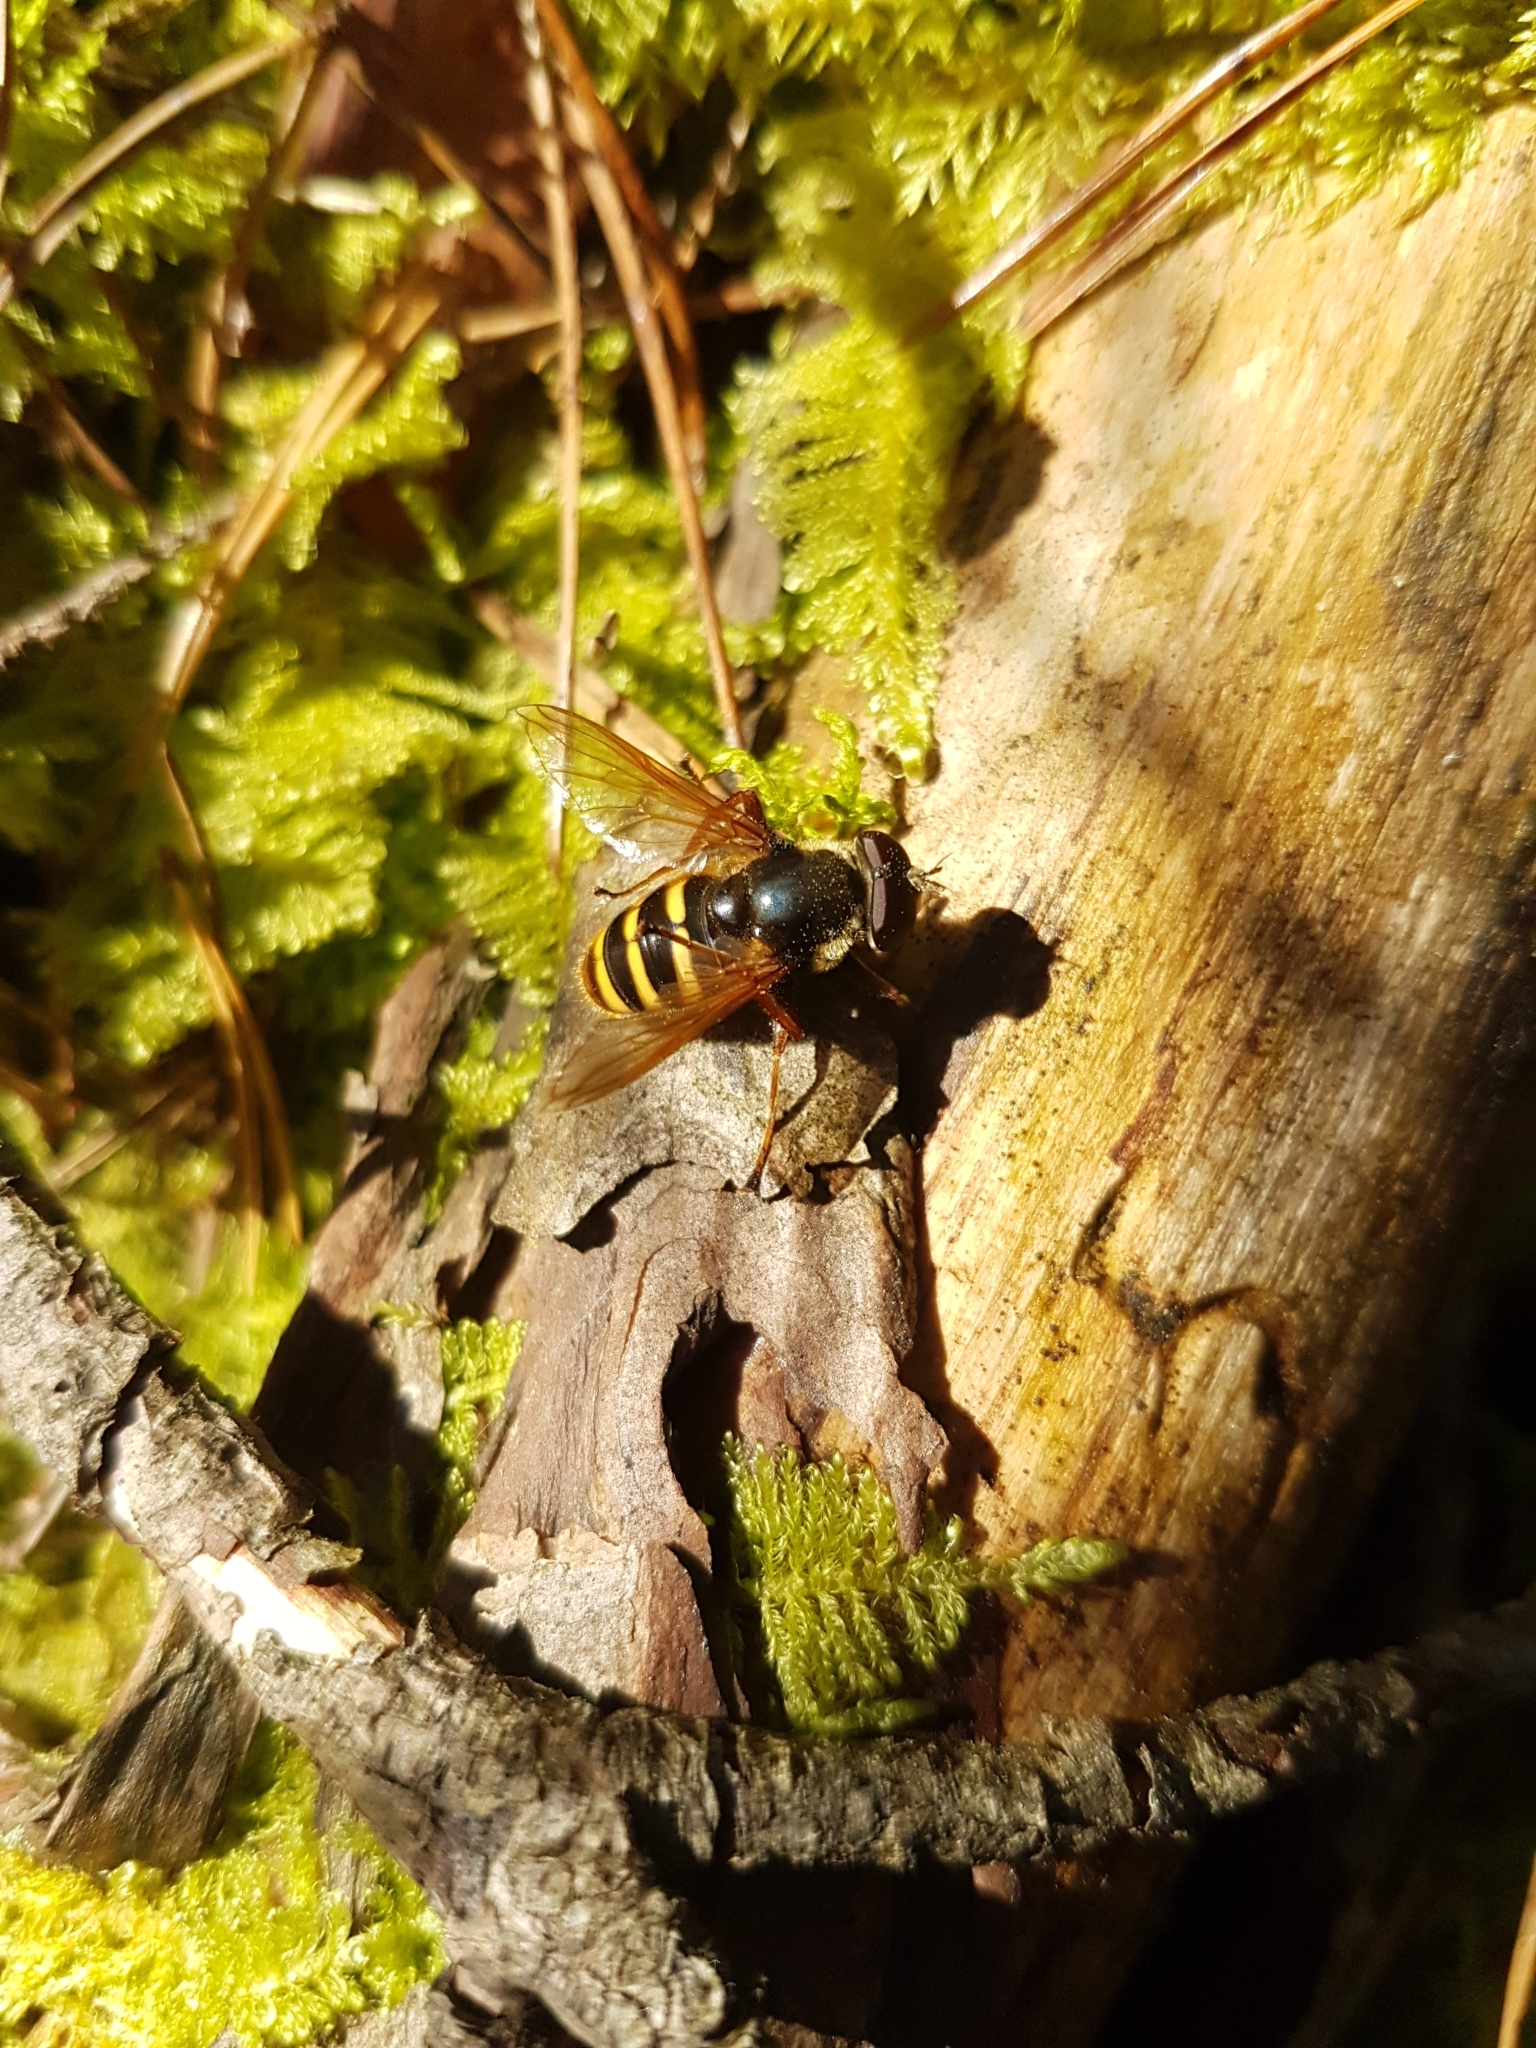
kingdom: Animalia
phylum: Arthropoda
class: Insecta
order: Diptera
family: Syrphidae
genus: Sericomyia
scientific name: Sericomyia silentis
